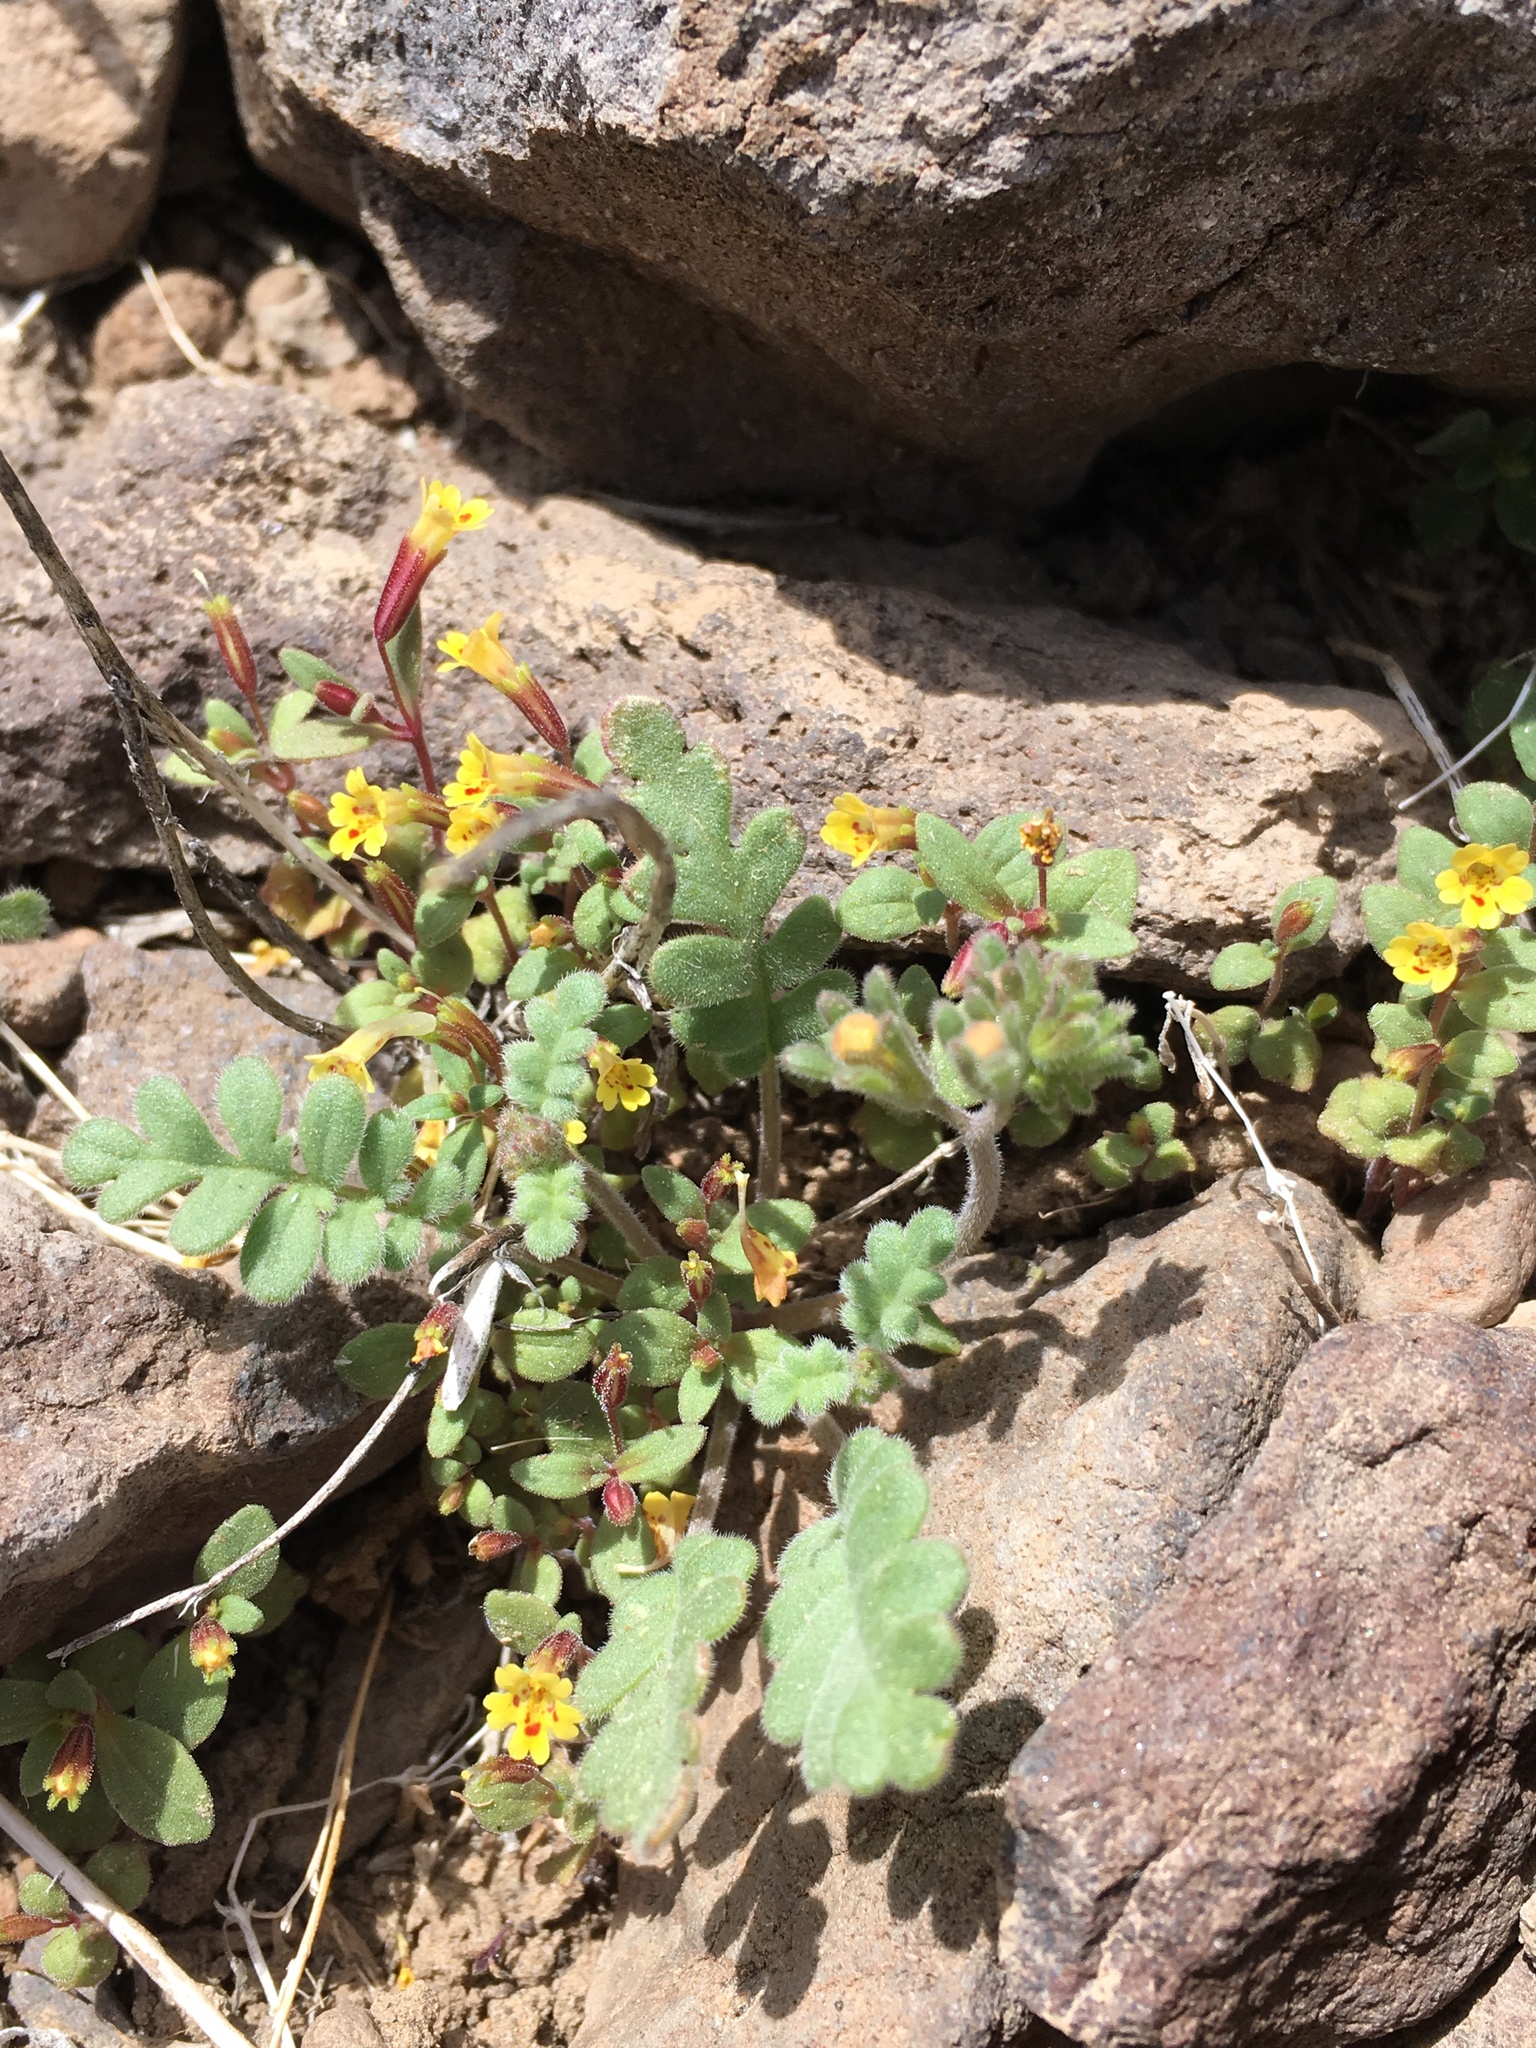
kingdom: Plantae
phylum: Tracheophyta
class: Magnoliopsida
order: Lamiales
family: Phrymaceae
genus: Erythranthe
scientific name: Erythranthe rubella
